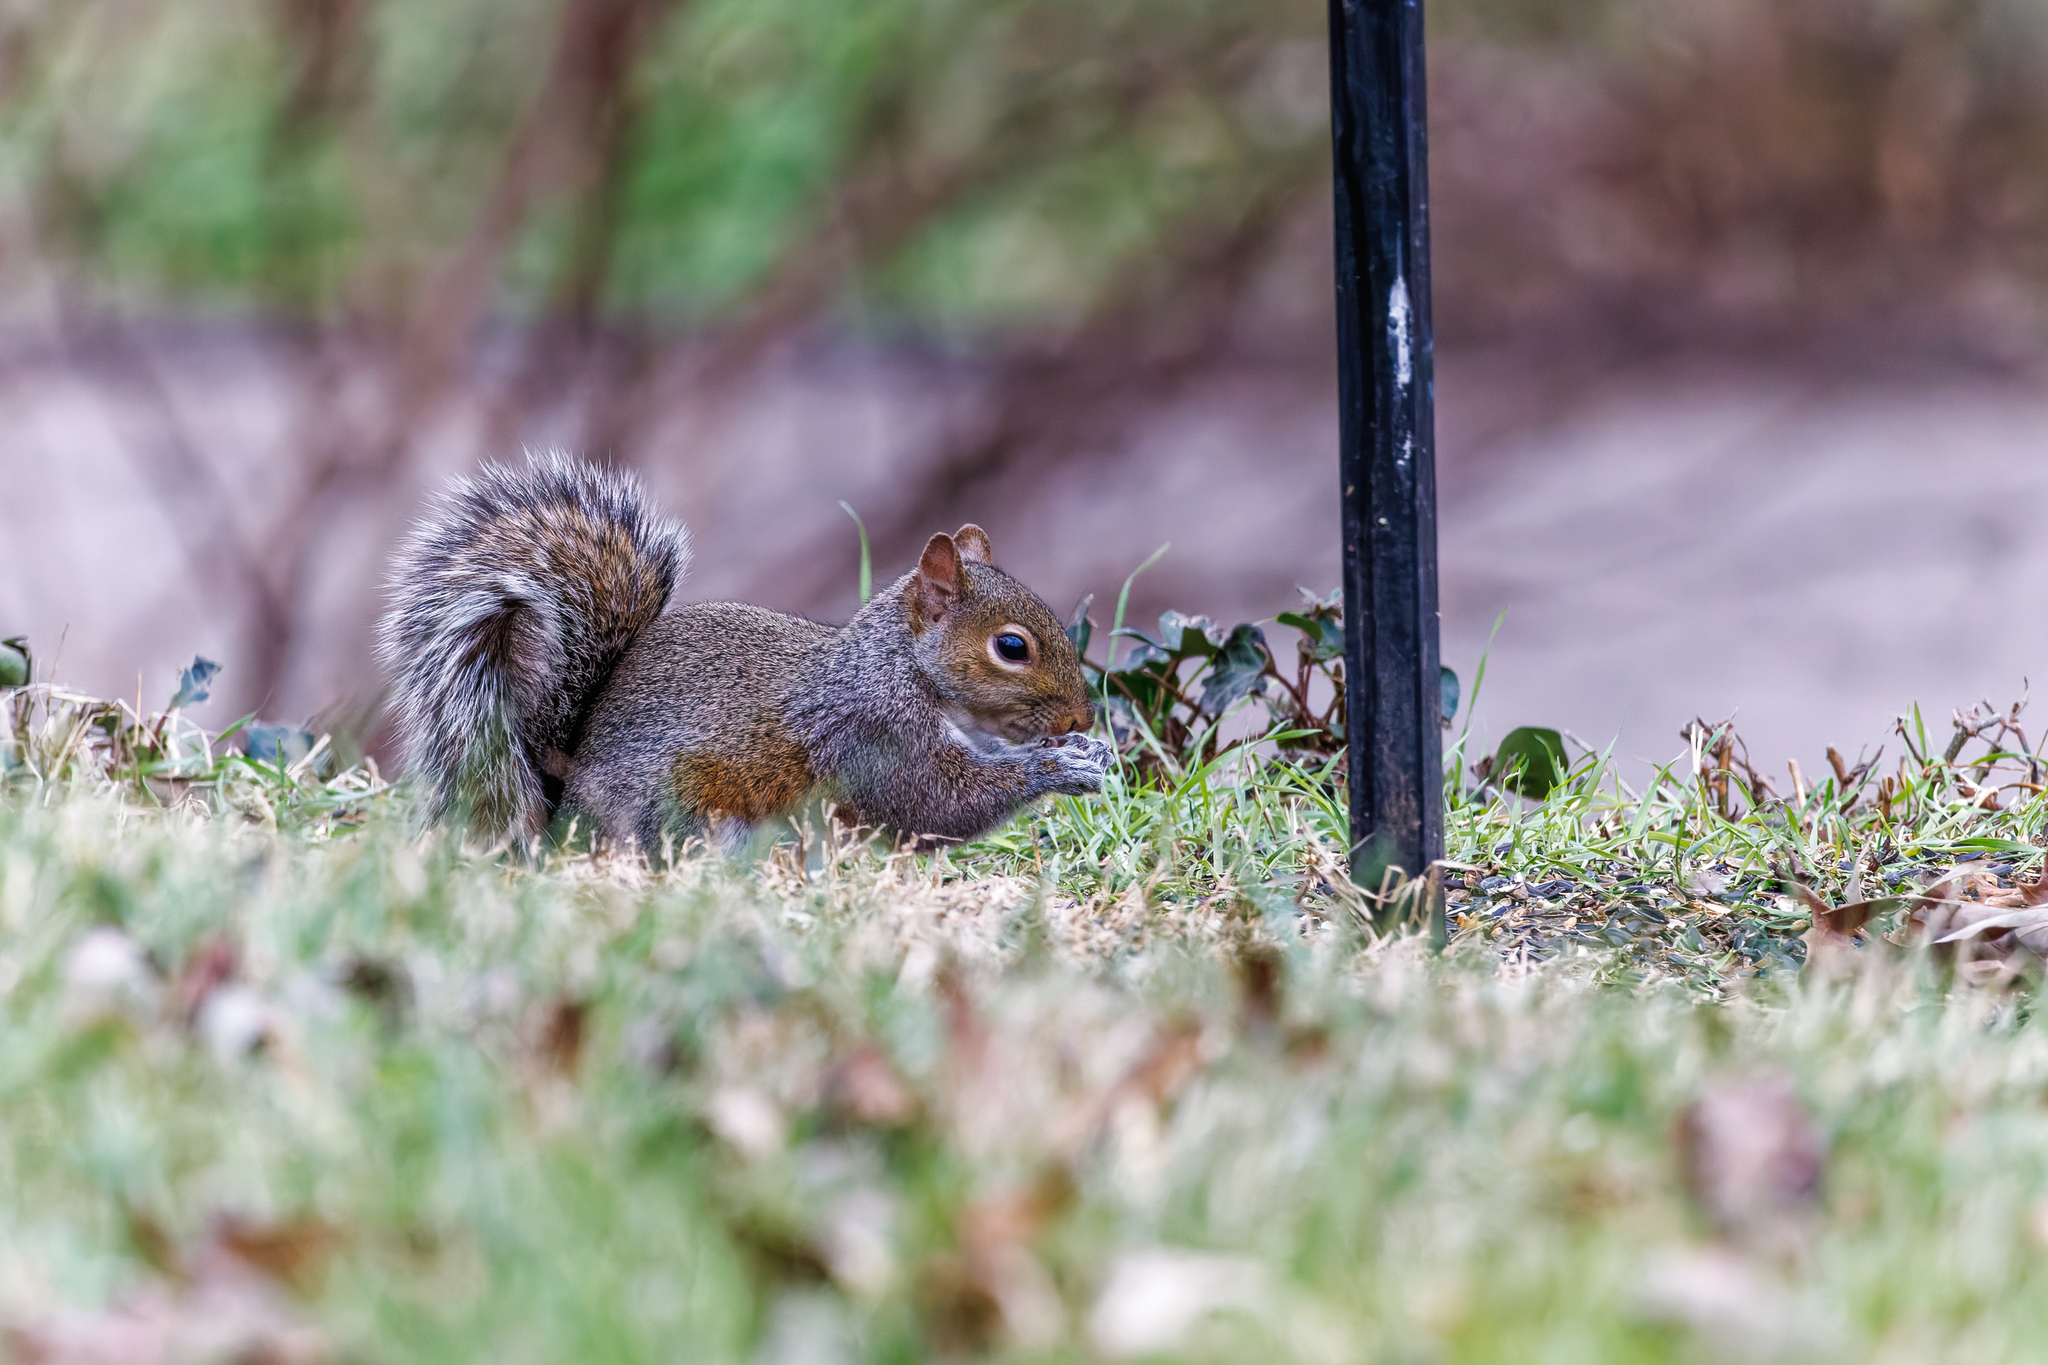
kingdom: Animalia
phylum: Chordata
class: Mammalia
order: Rodentia
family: Sciuridae
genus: Sciurus
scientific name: Sciurus carolinensis
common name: Eastern gray squirrel
